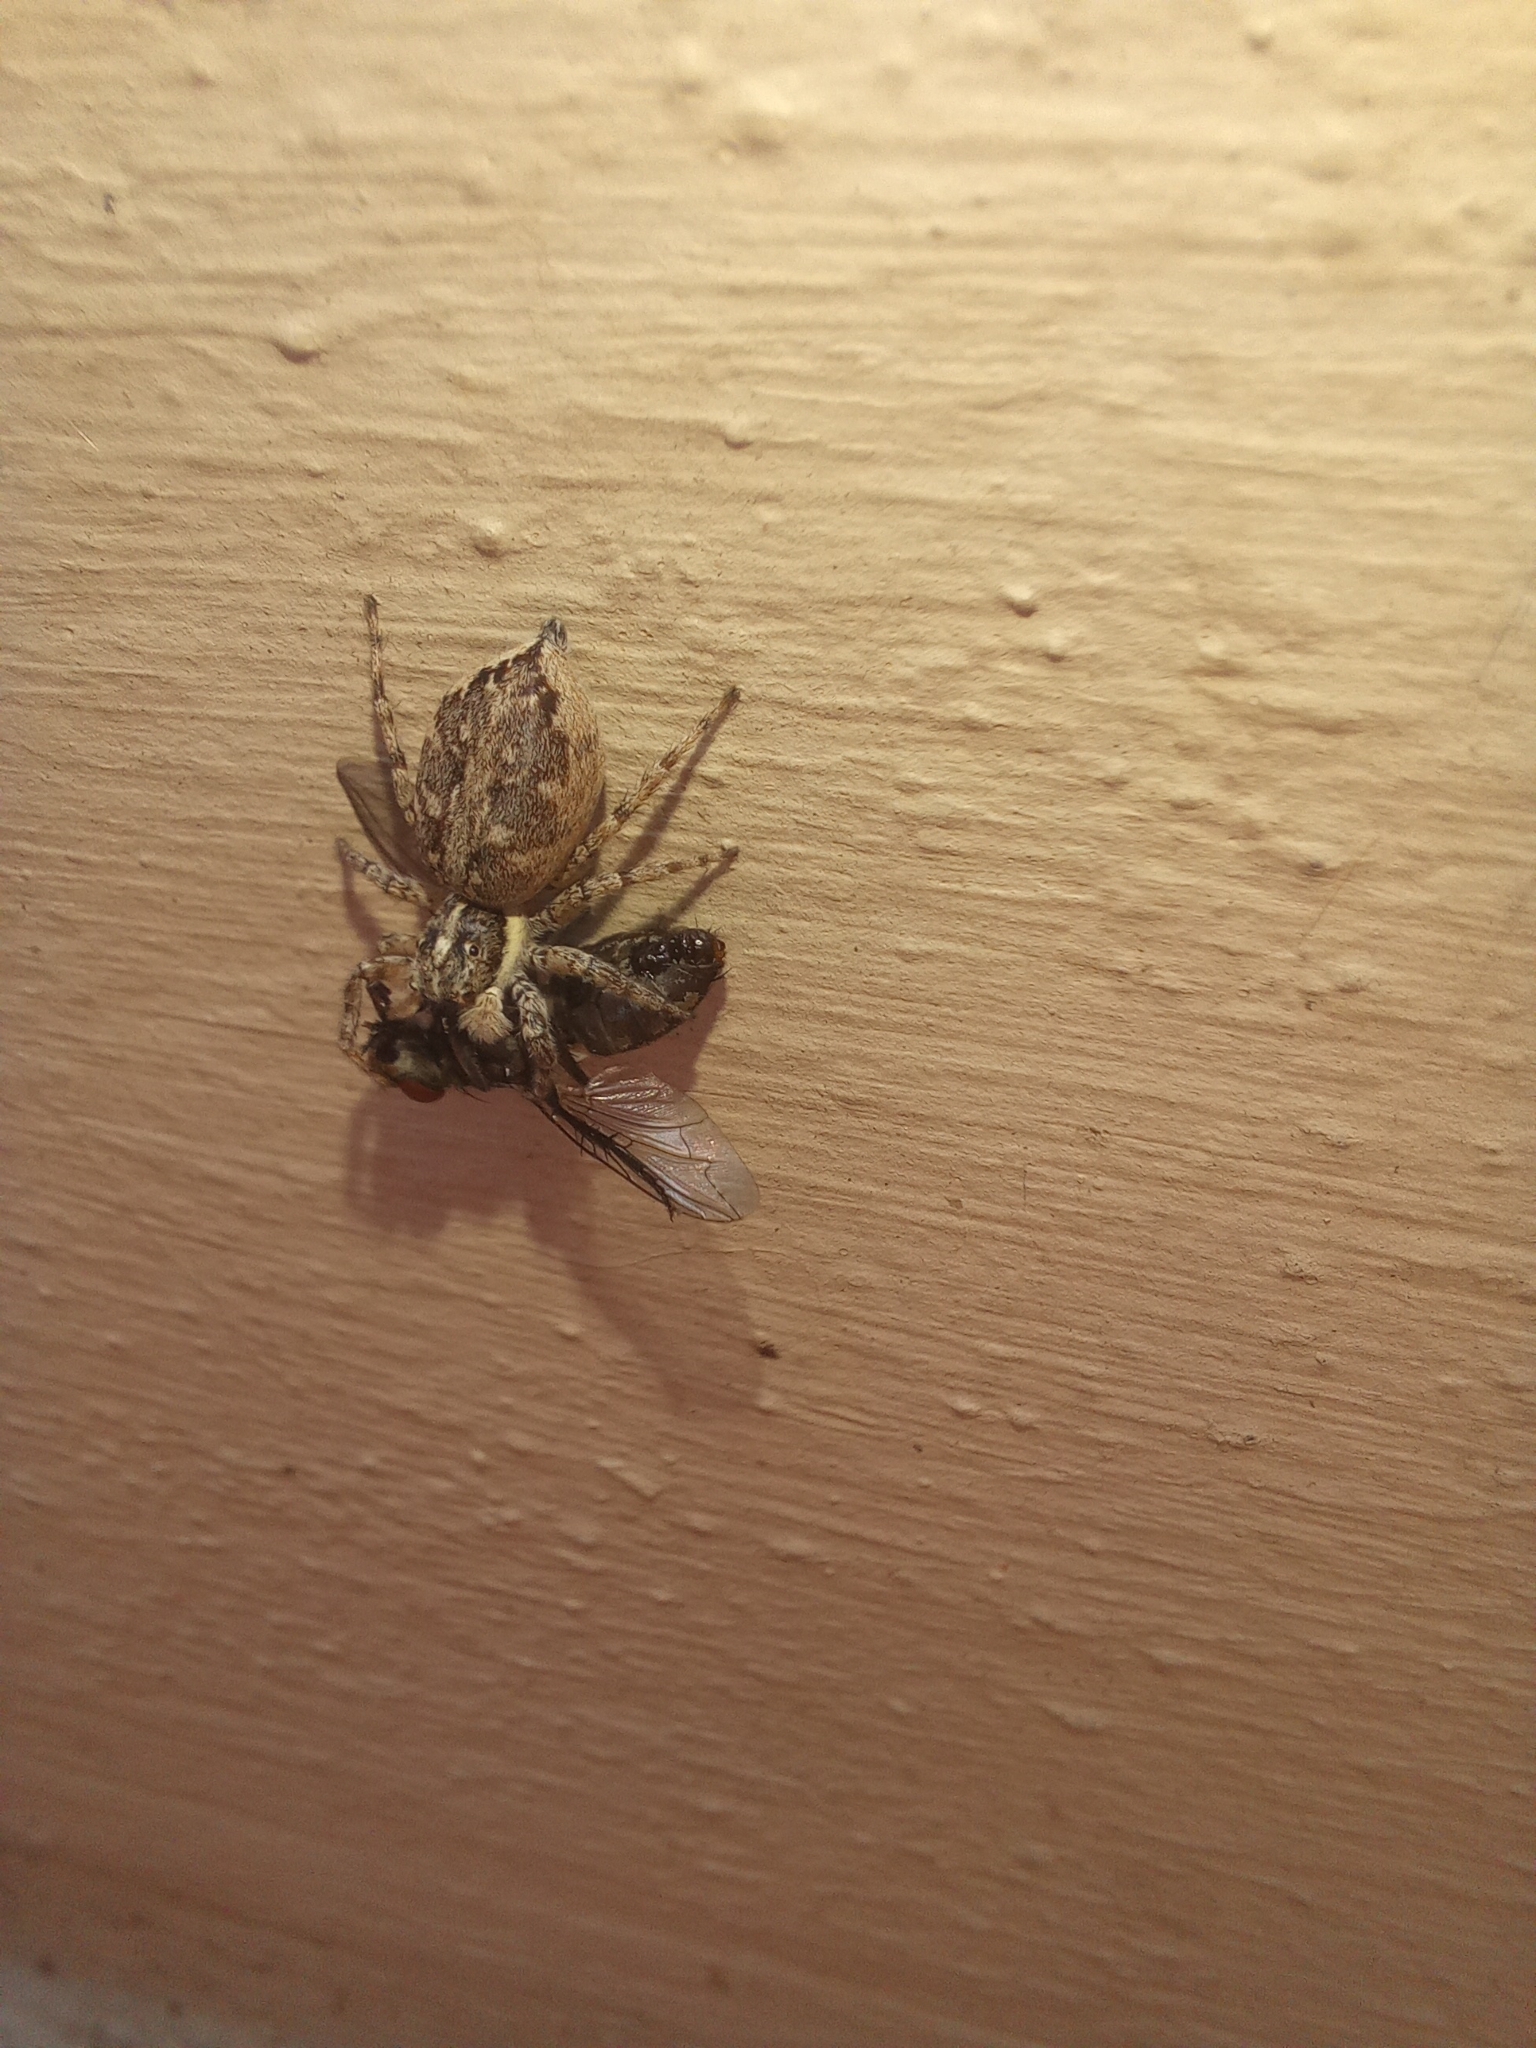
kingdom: Animalia
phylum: Arthropoda
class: Arachnida
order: Araneae
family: Salticidae
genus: Menemerus
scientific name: Menemerus semilimbatus
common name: Jumping spider
